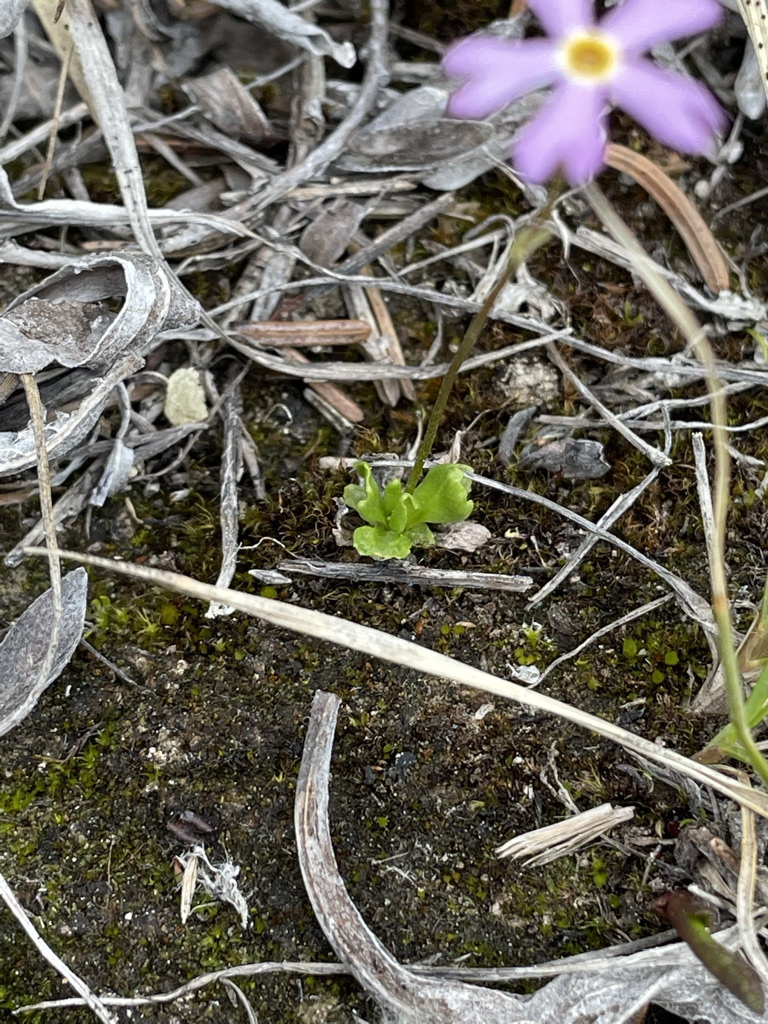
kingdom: Plantae
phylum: Tracheophyta
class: Magnoliopsida
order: Ericales
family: Primulaceae
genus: Primula
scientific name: Primula mistassinica
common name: Bird's-eye primrose
